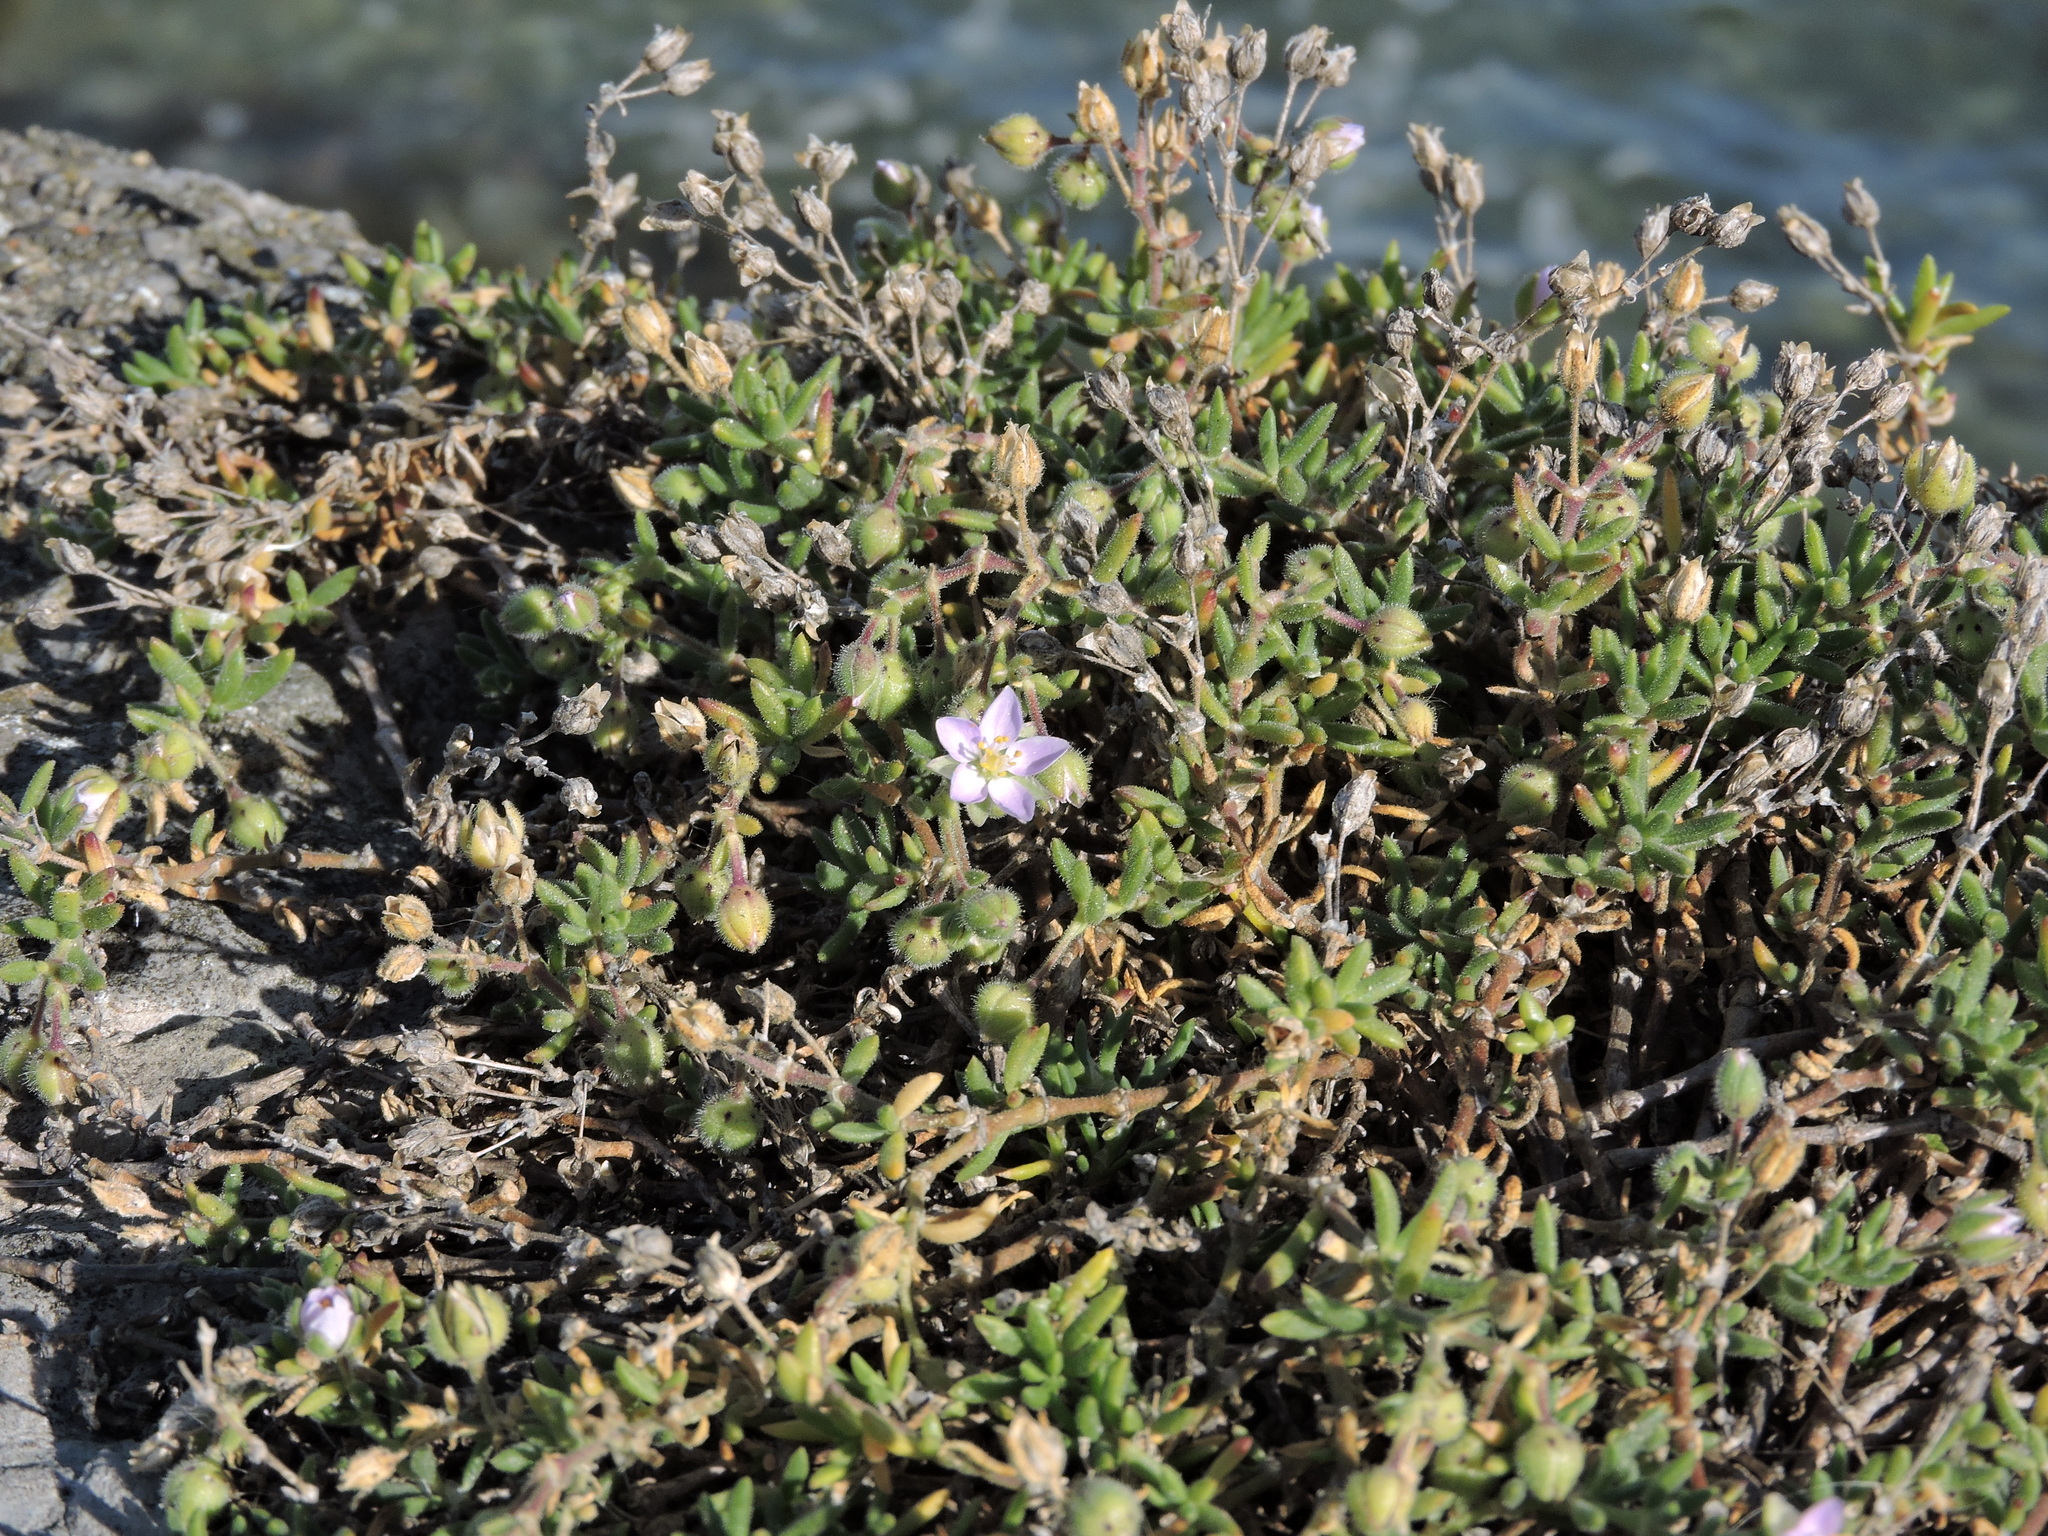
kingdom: Plantae
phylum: Tracheophyta
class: Magnoliopsida
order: Caryophyllales
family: Caryophyllaceae
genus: Spergularia
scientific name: Spergularia rupicola
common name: Cliff sand-spurrey
